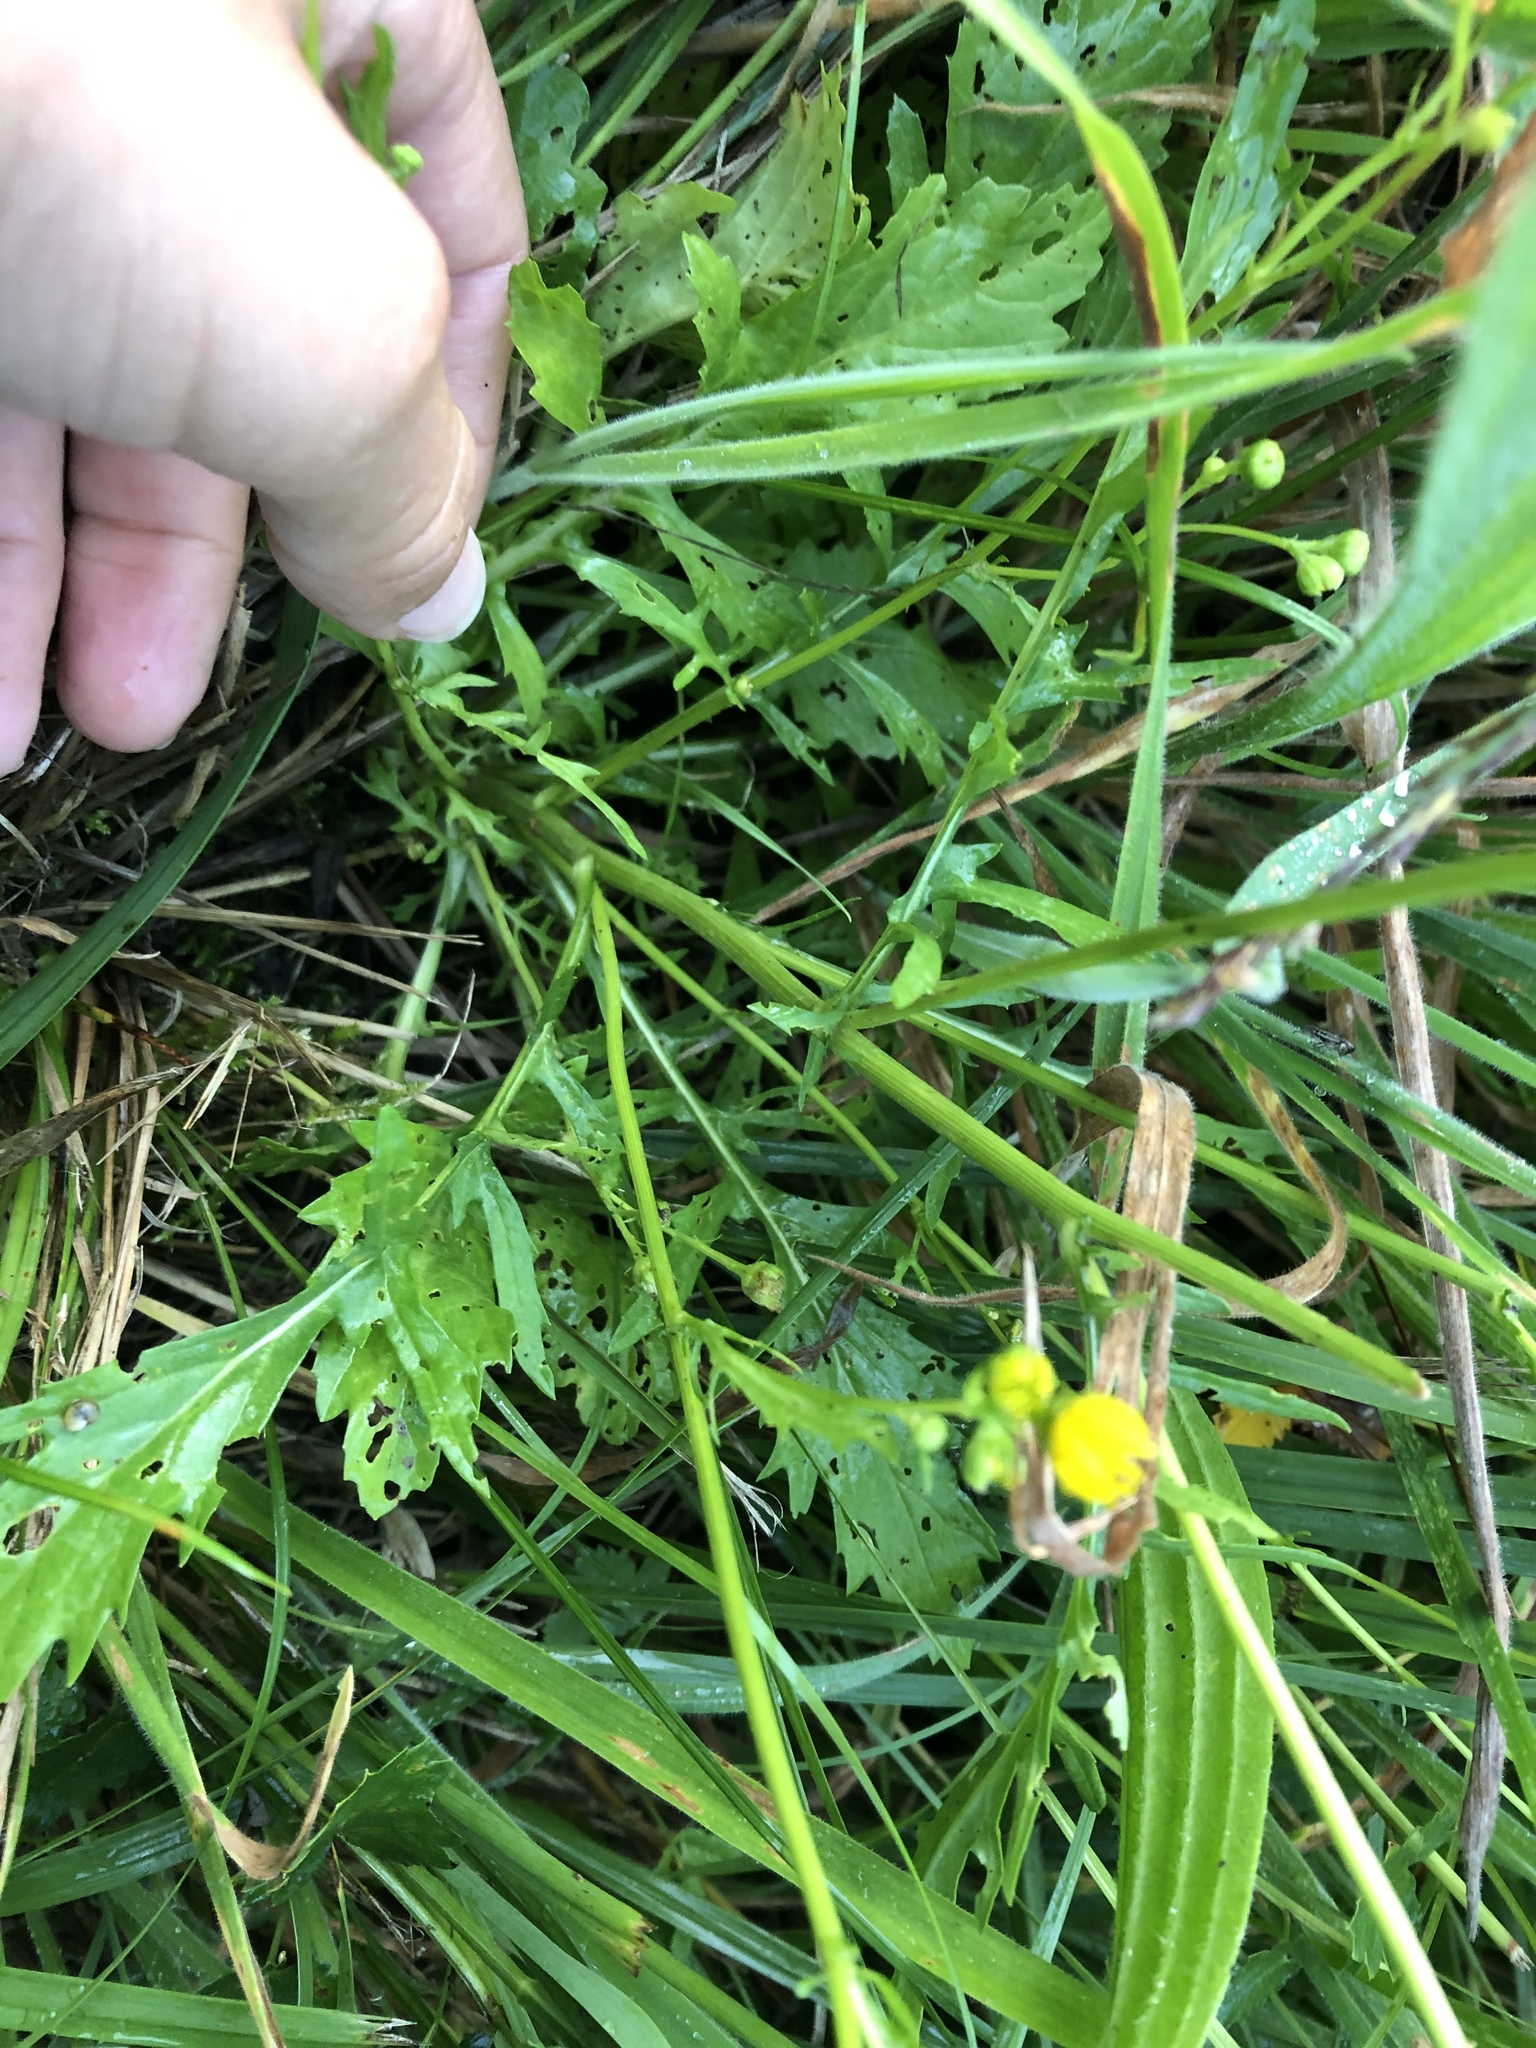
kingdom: Plantae
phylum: Tracheophyta
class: Magnoliopsida
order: Asterales
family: Asteraceae
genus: Jacobaea
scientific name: Jacobaea aquatica
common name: Water ragwort
